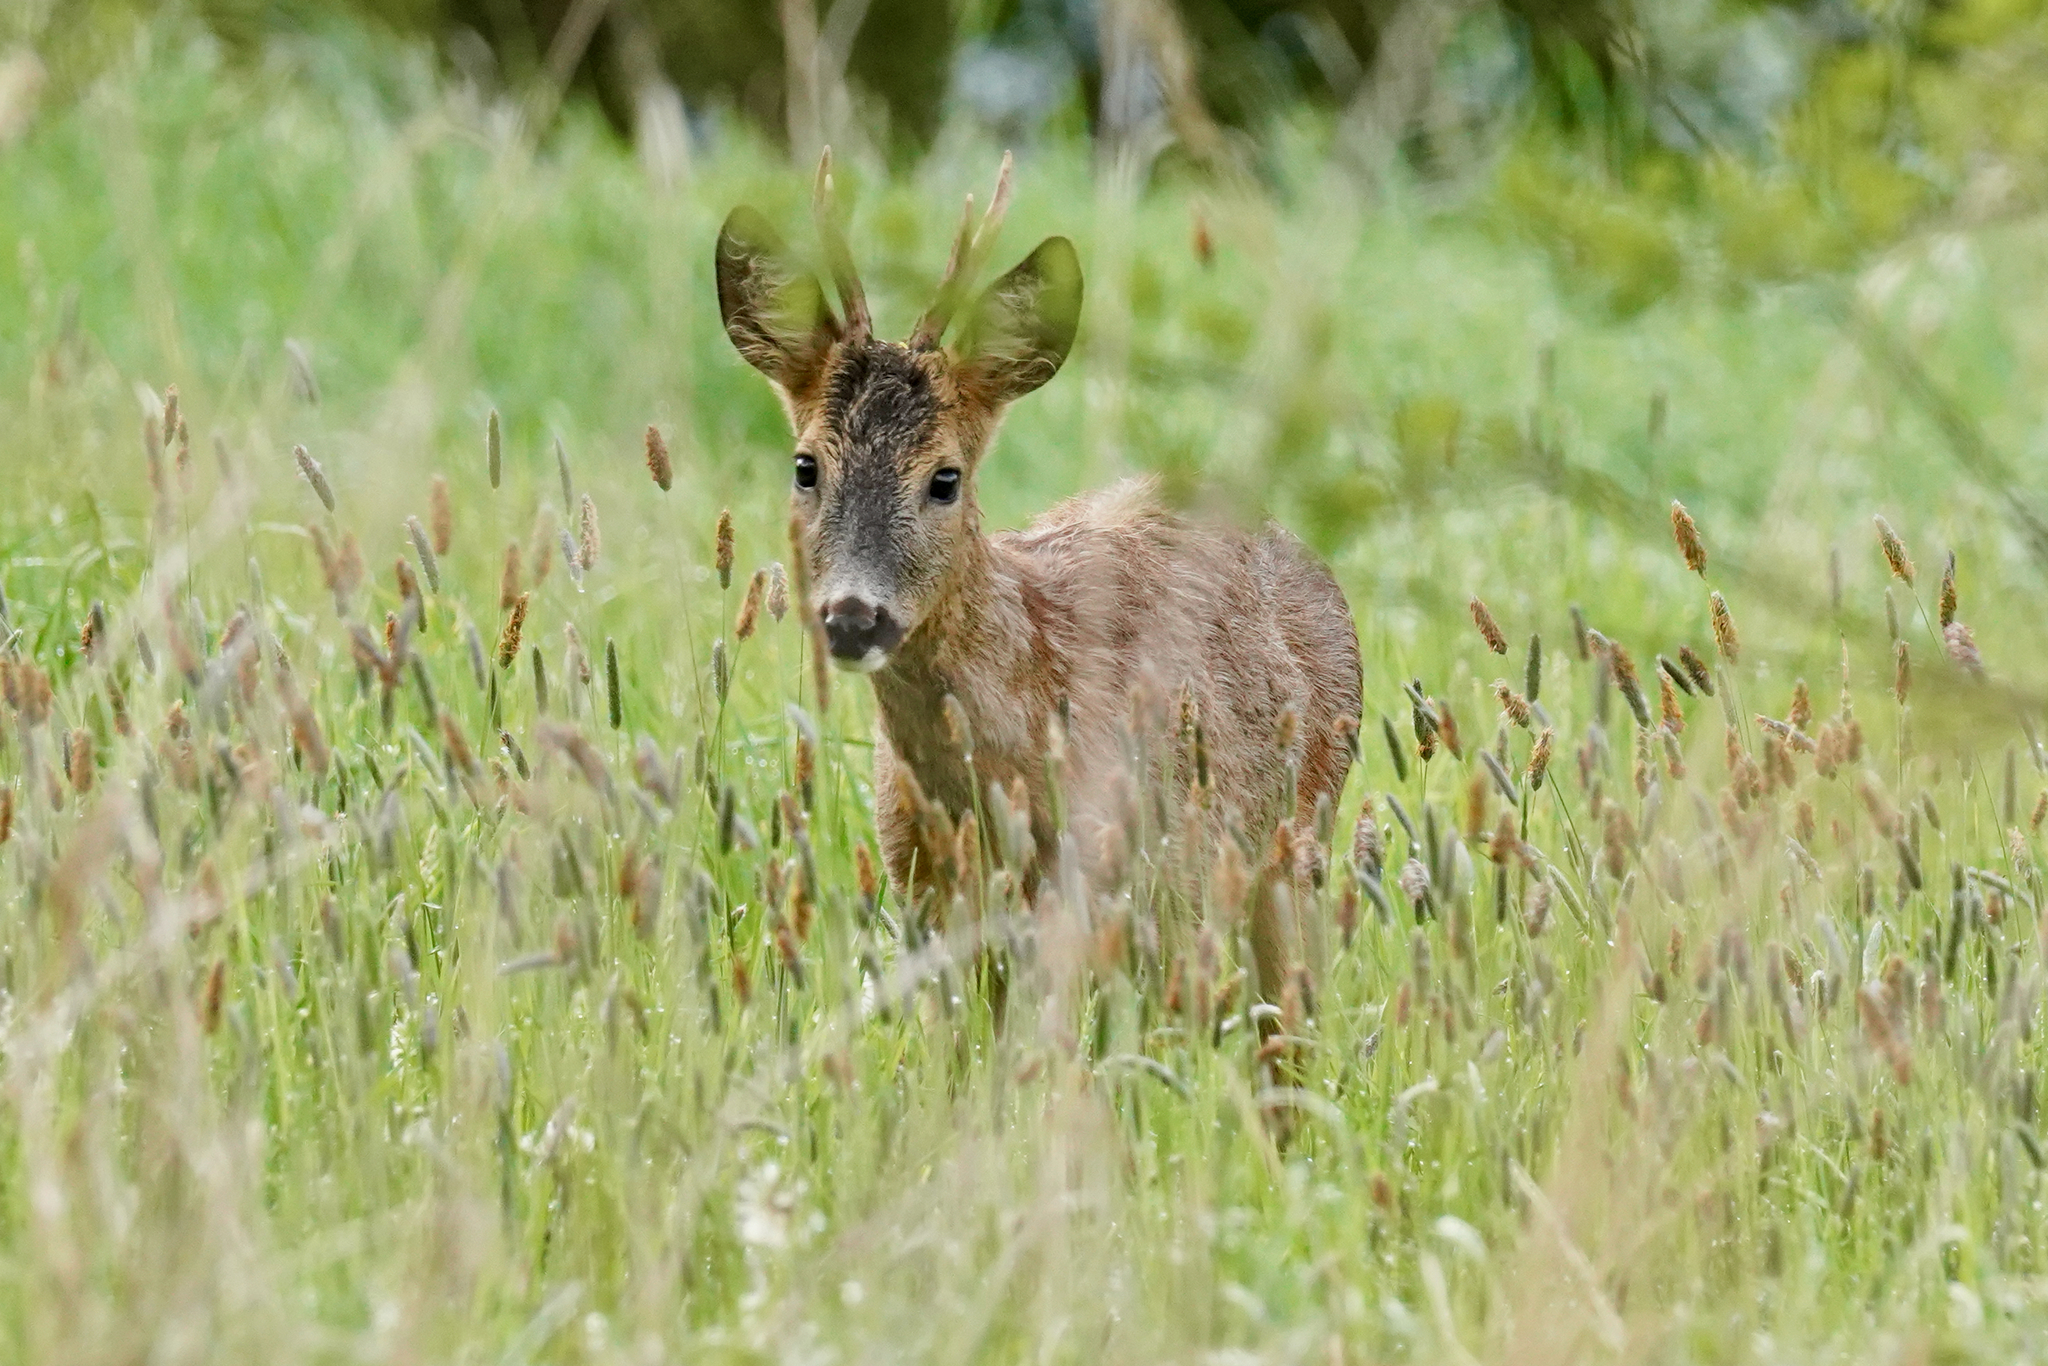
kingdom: Animalia
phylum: Chordata
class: Mammalia
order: Artiodactyla
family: Cervidae
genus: Capreolus
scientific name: Capreolus capreolus
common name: Western roe deer
